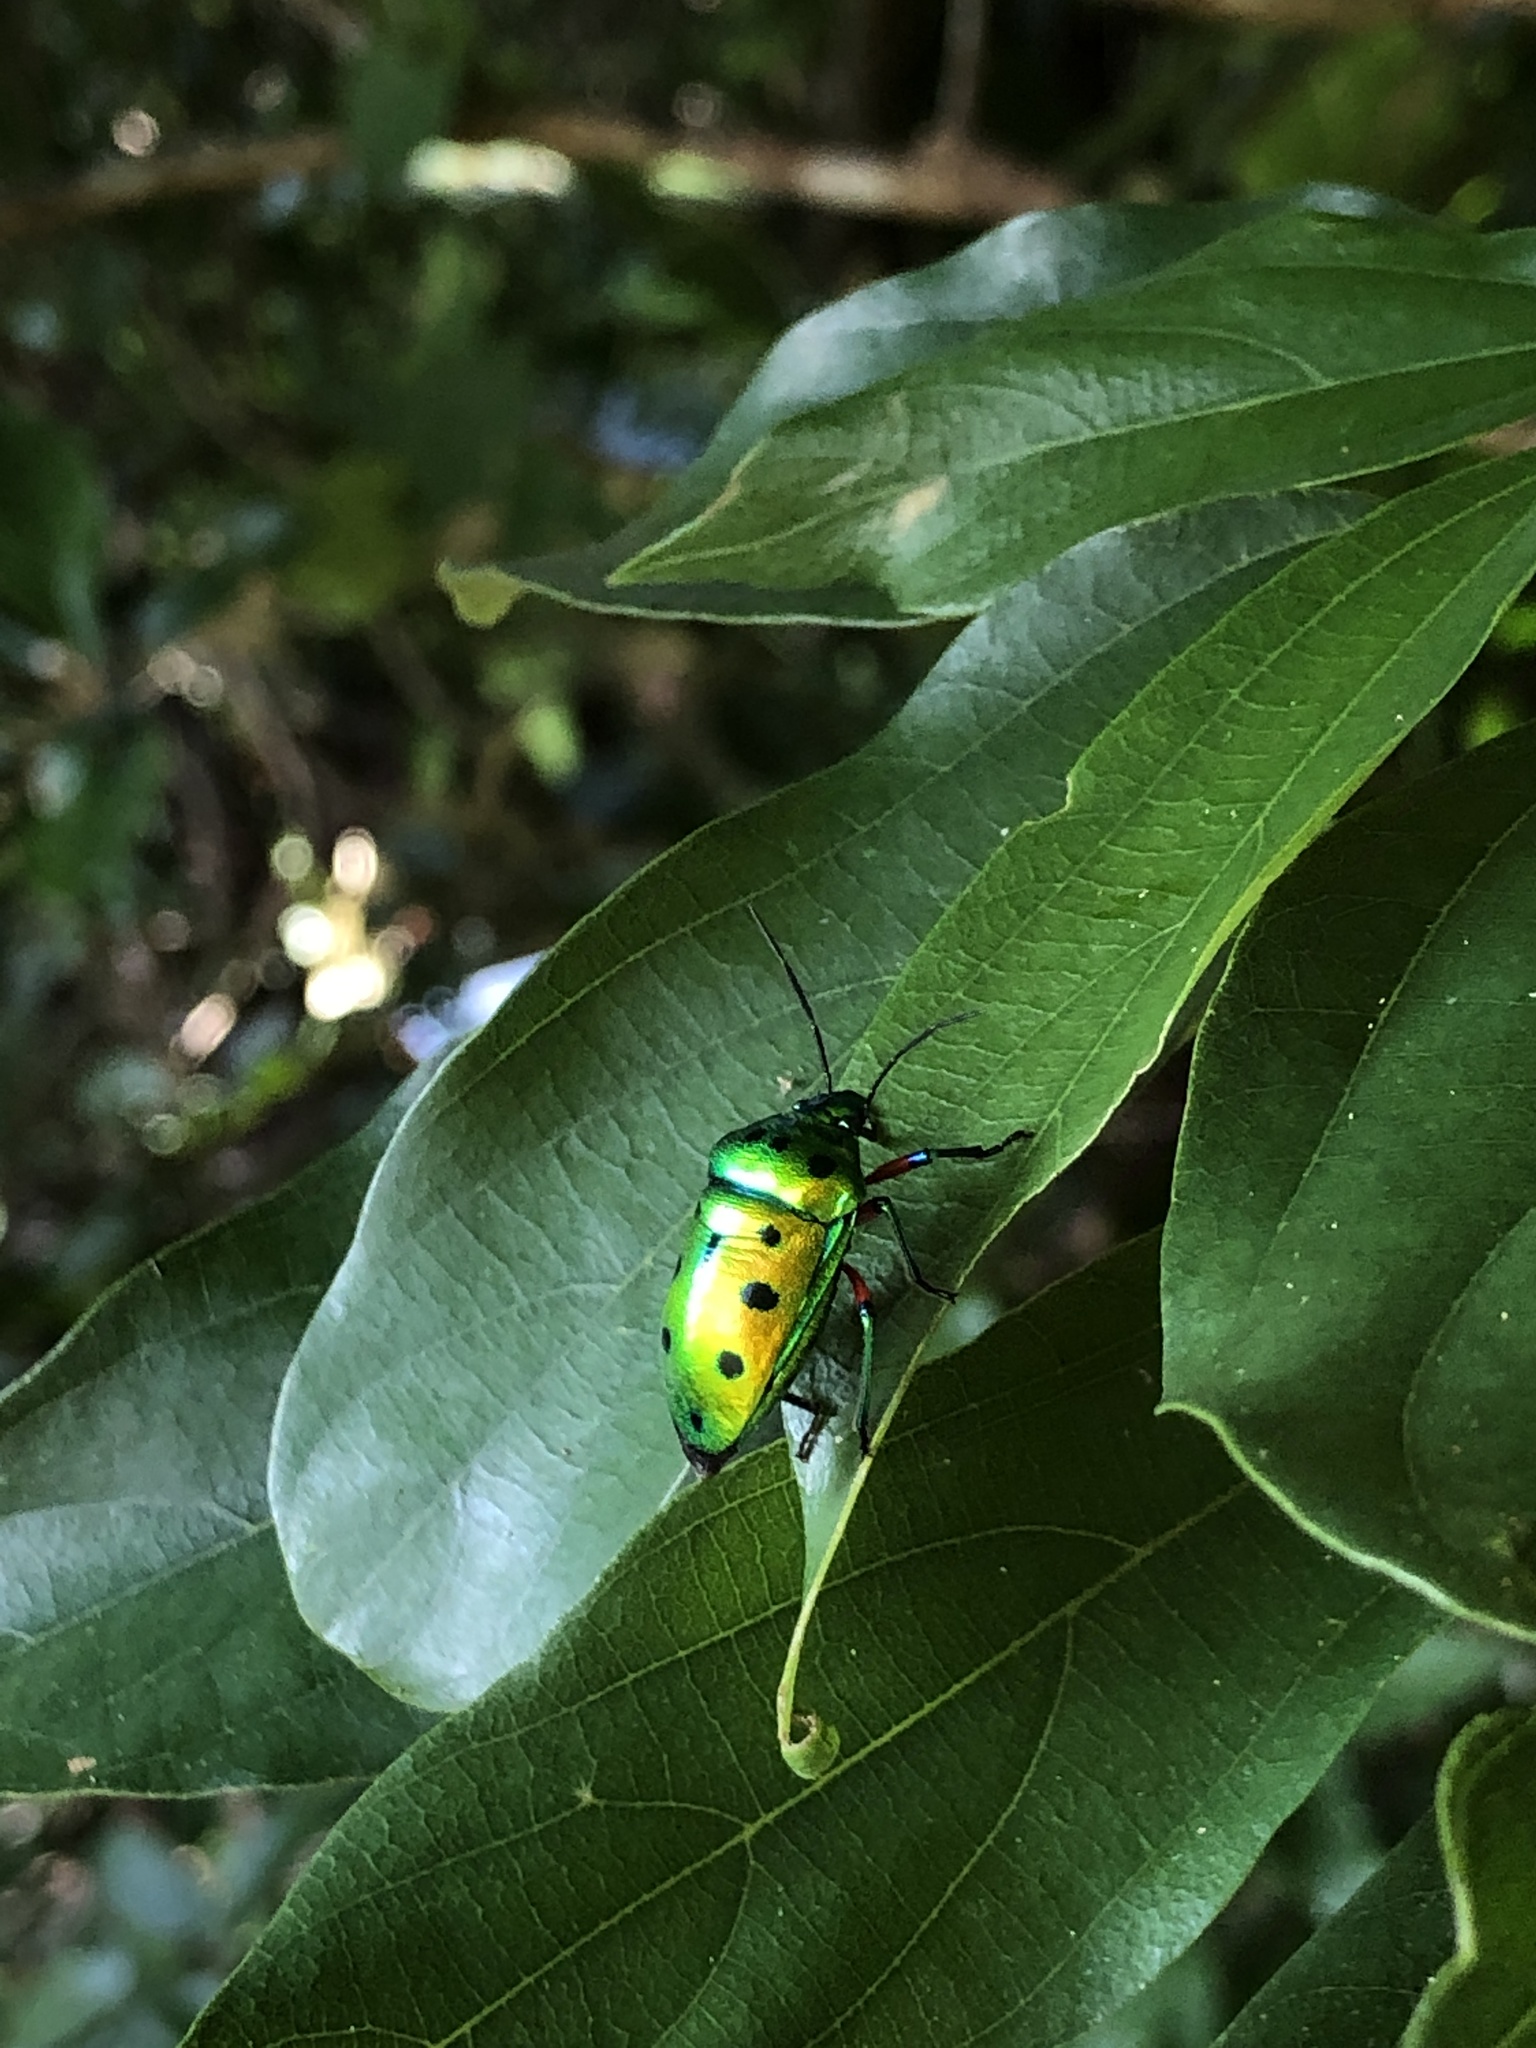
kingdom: Animalia
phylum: Arthropoda
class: Insecta
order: Hemiptera
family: Scutelleridae
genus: Calliphara
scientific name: Calliphara excellens
